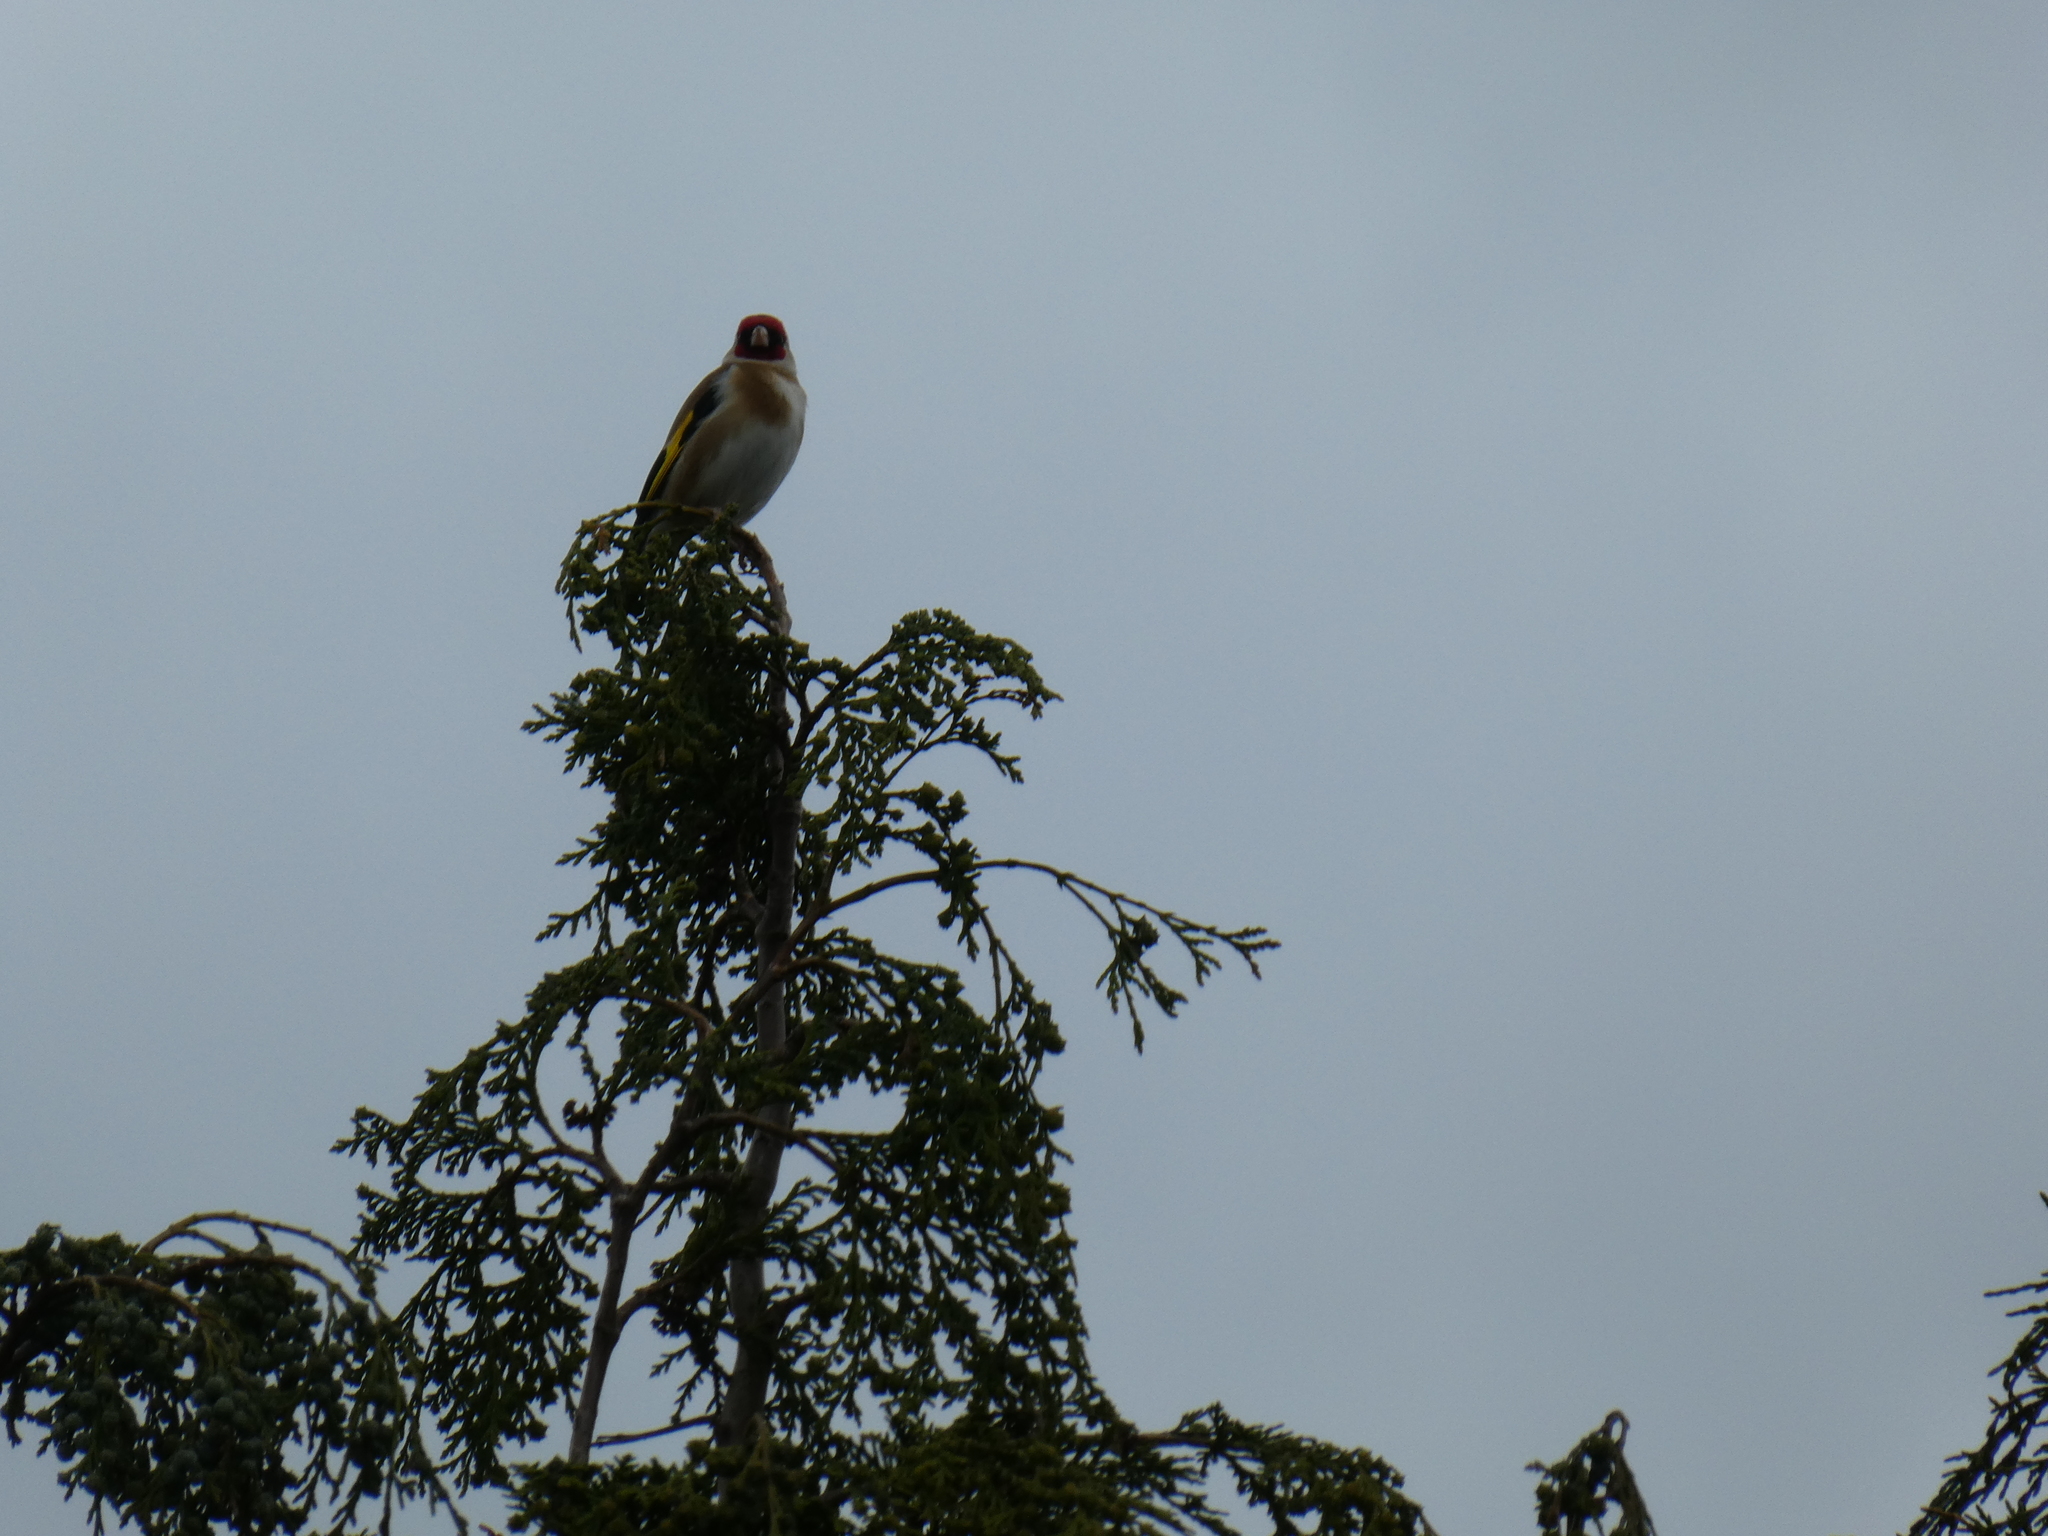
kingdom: Animalia
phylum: Chordata
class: Aves
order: Passeriformes
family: Fringillidae
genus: Carduelis
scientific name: Carduelis carduelis
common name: European goldfinch
